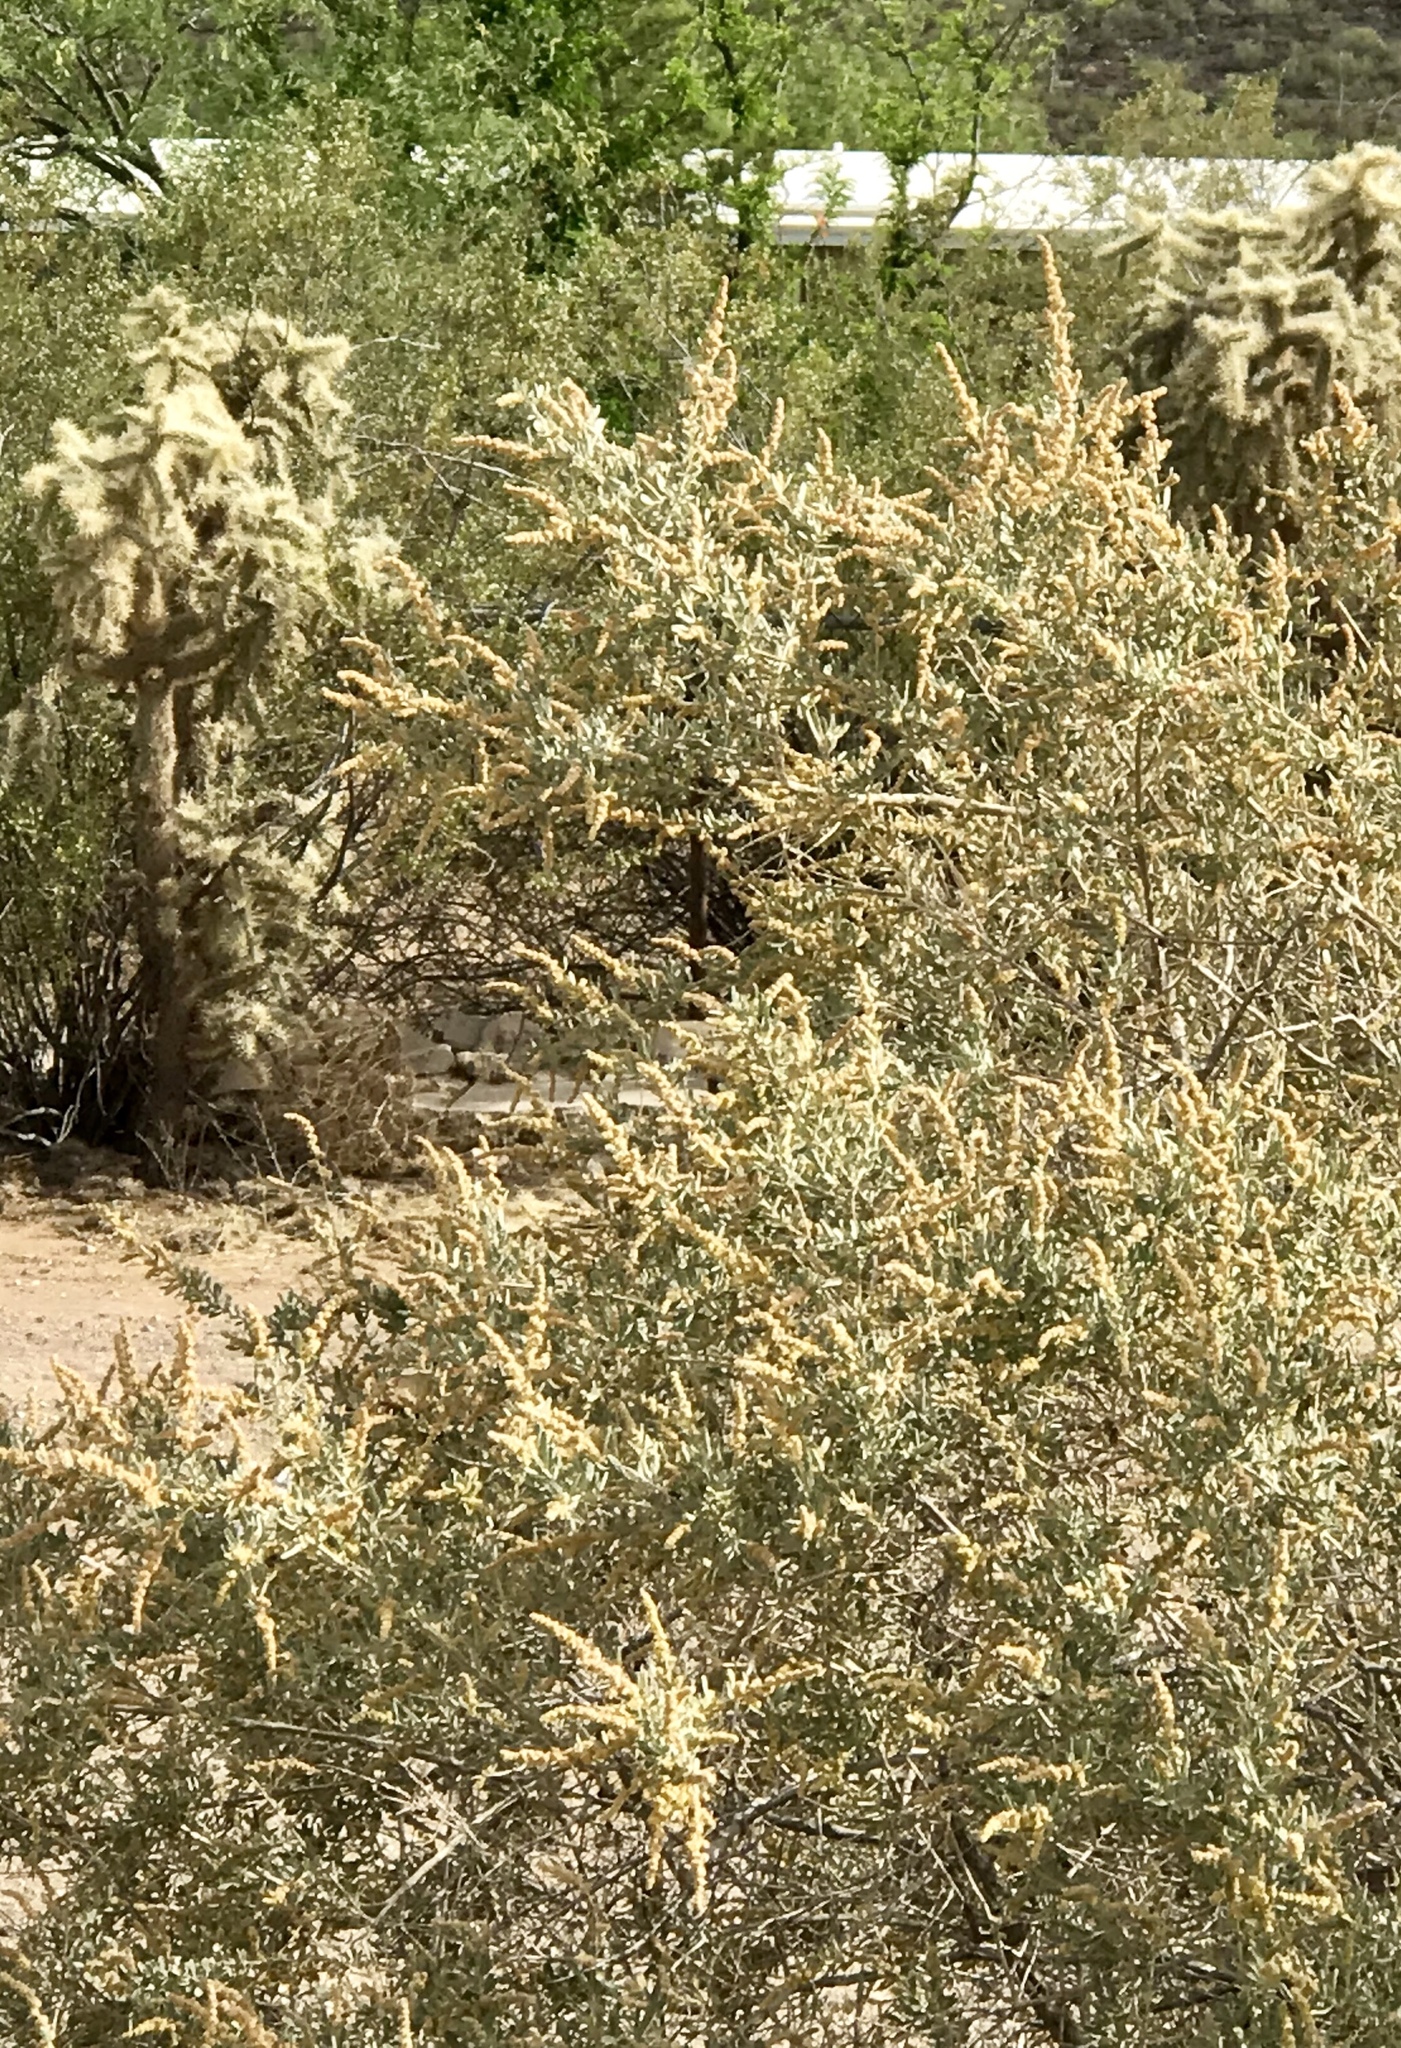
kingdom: Plantae
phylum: Tracheophyta
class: Magnoliopsida
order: Caryophyllales
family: Amaranthaceae
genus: Atriplex
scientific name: Atriplex canescens
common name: Four-wing saltbush
